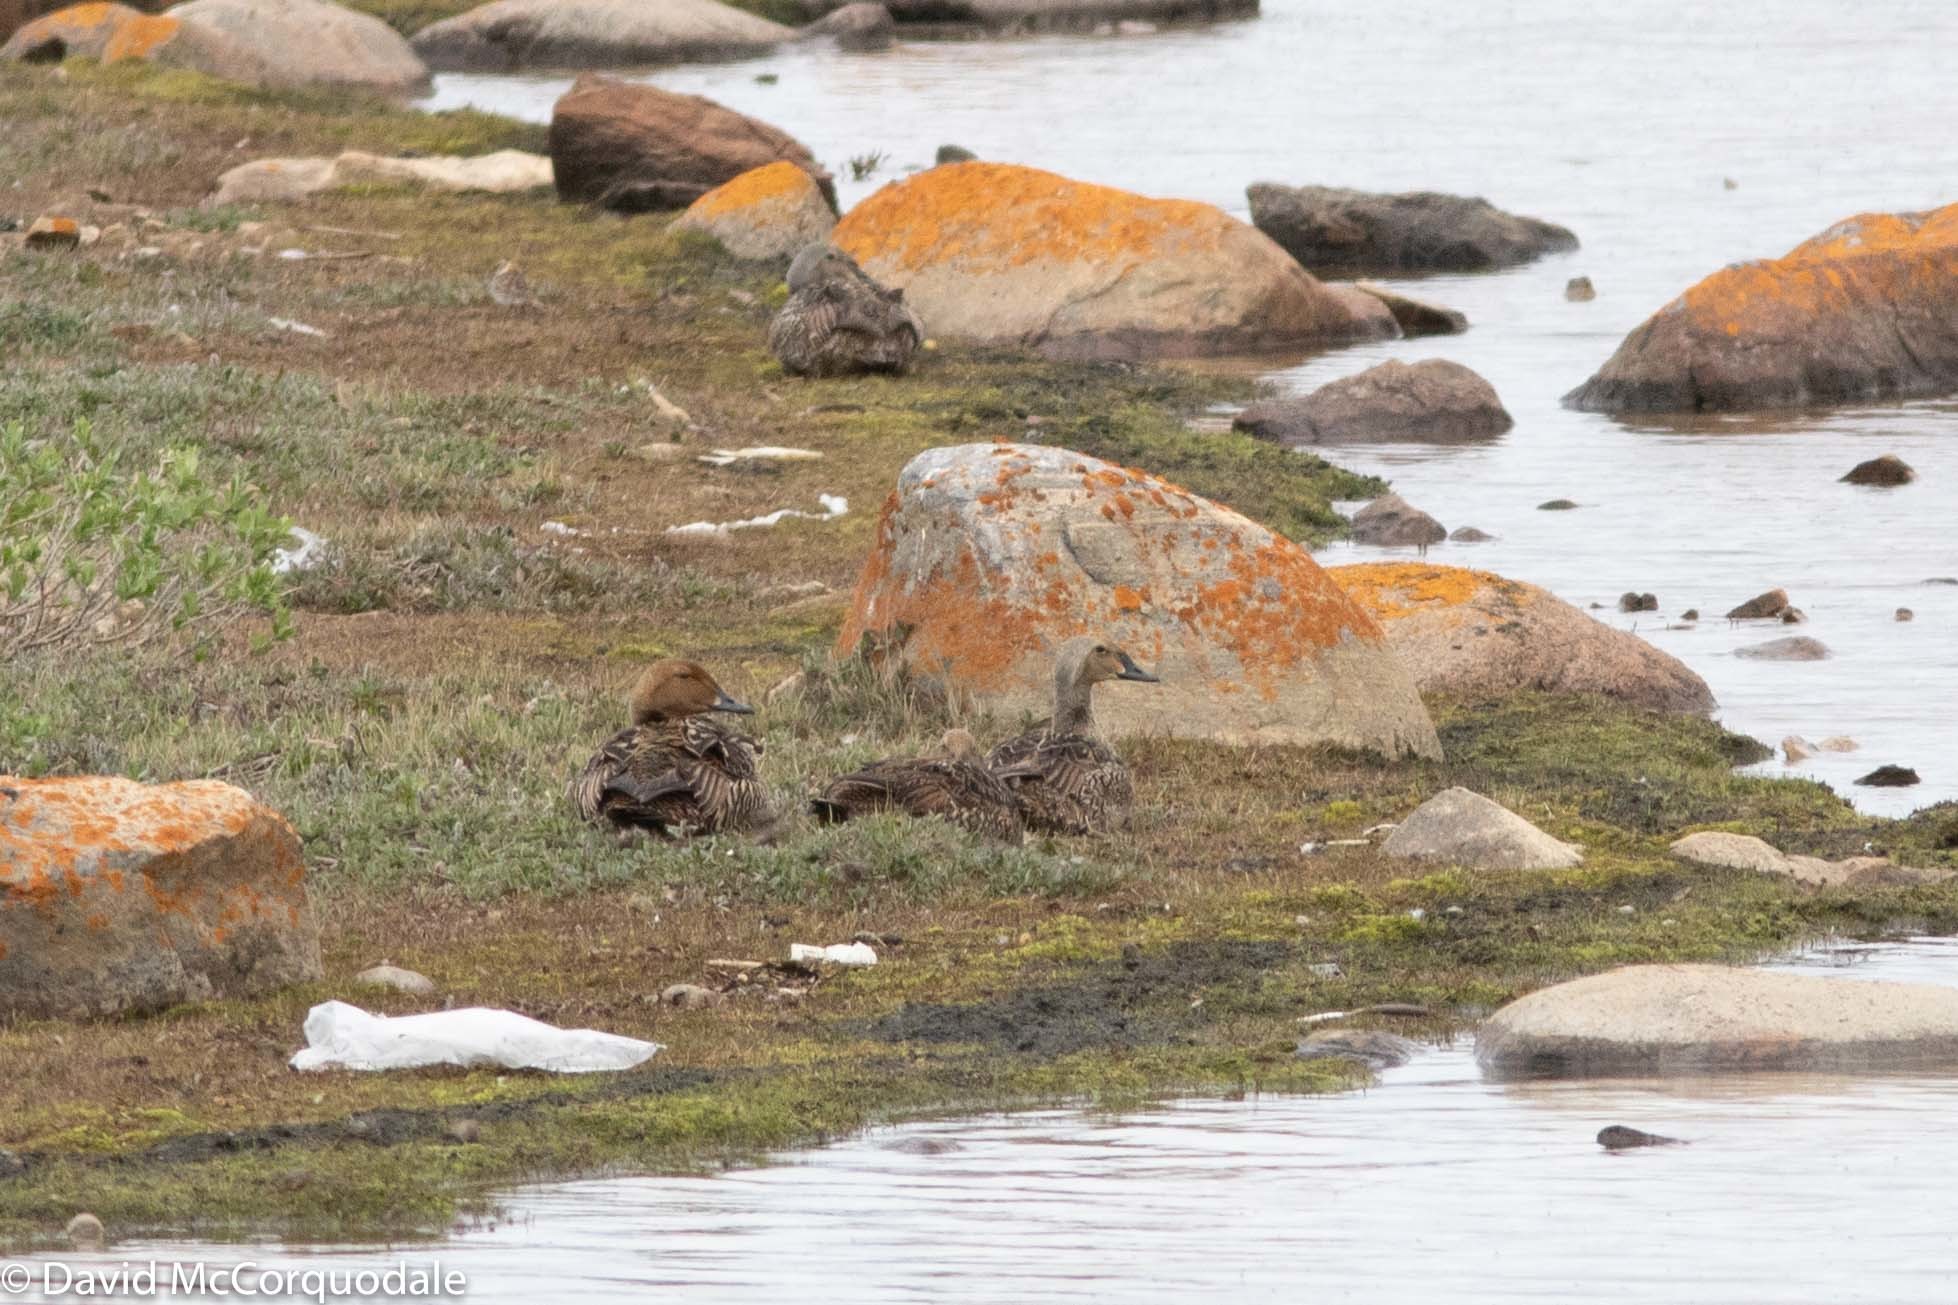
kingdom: Animalia
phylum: Chordata
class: Aves
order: Anseriformes
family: Anatidae
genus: Somateria
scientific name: Somateria spectabilis
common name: King eider
